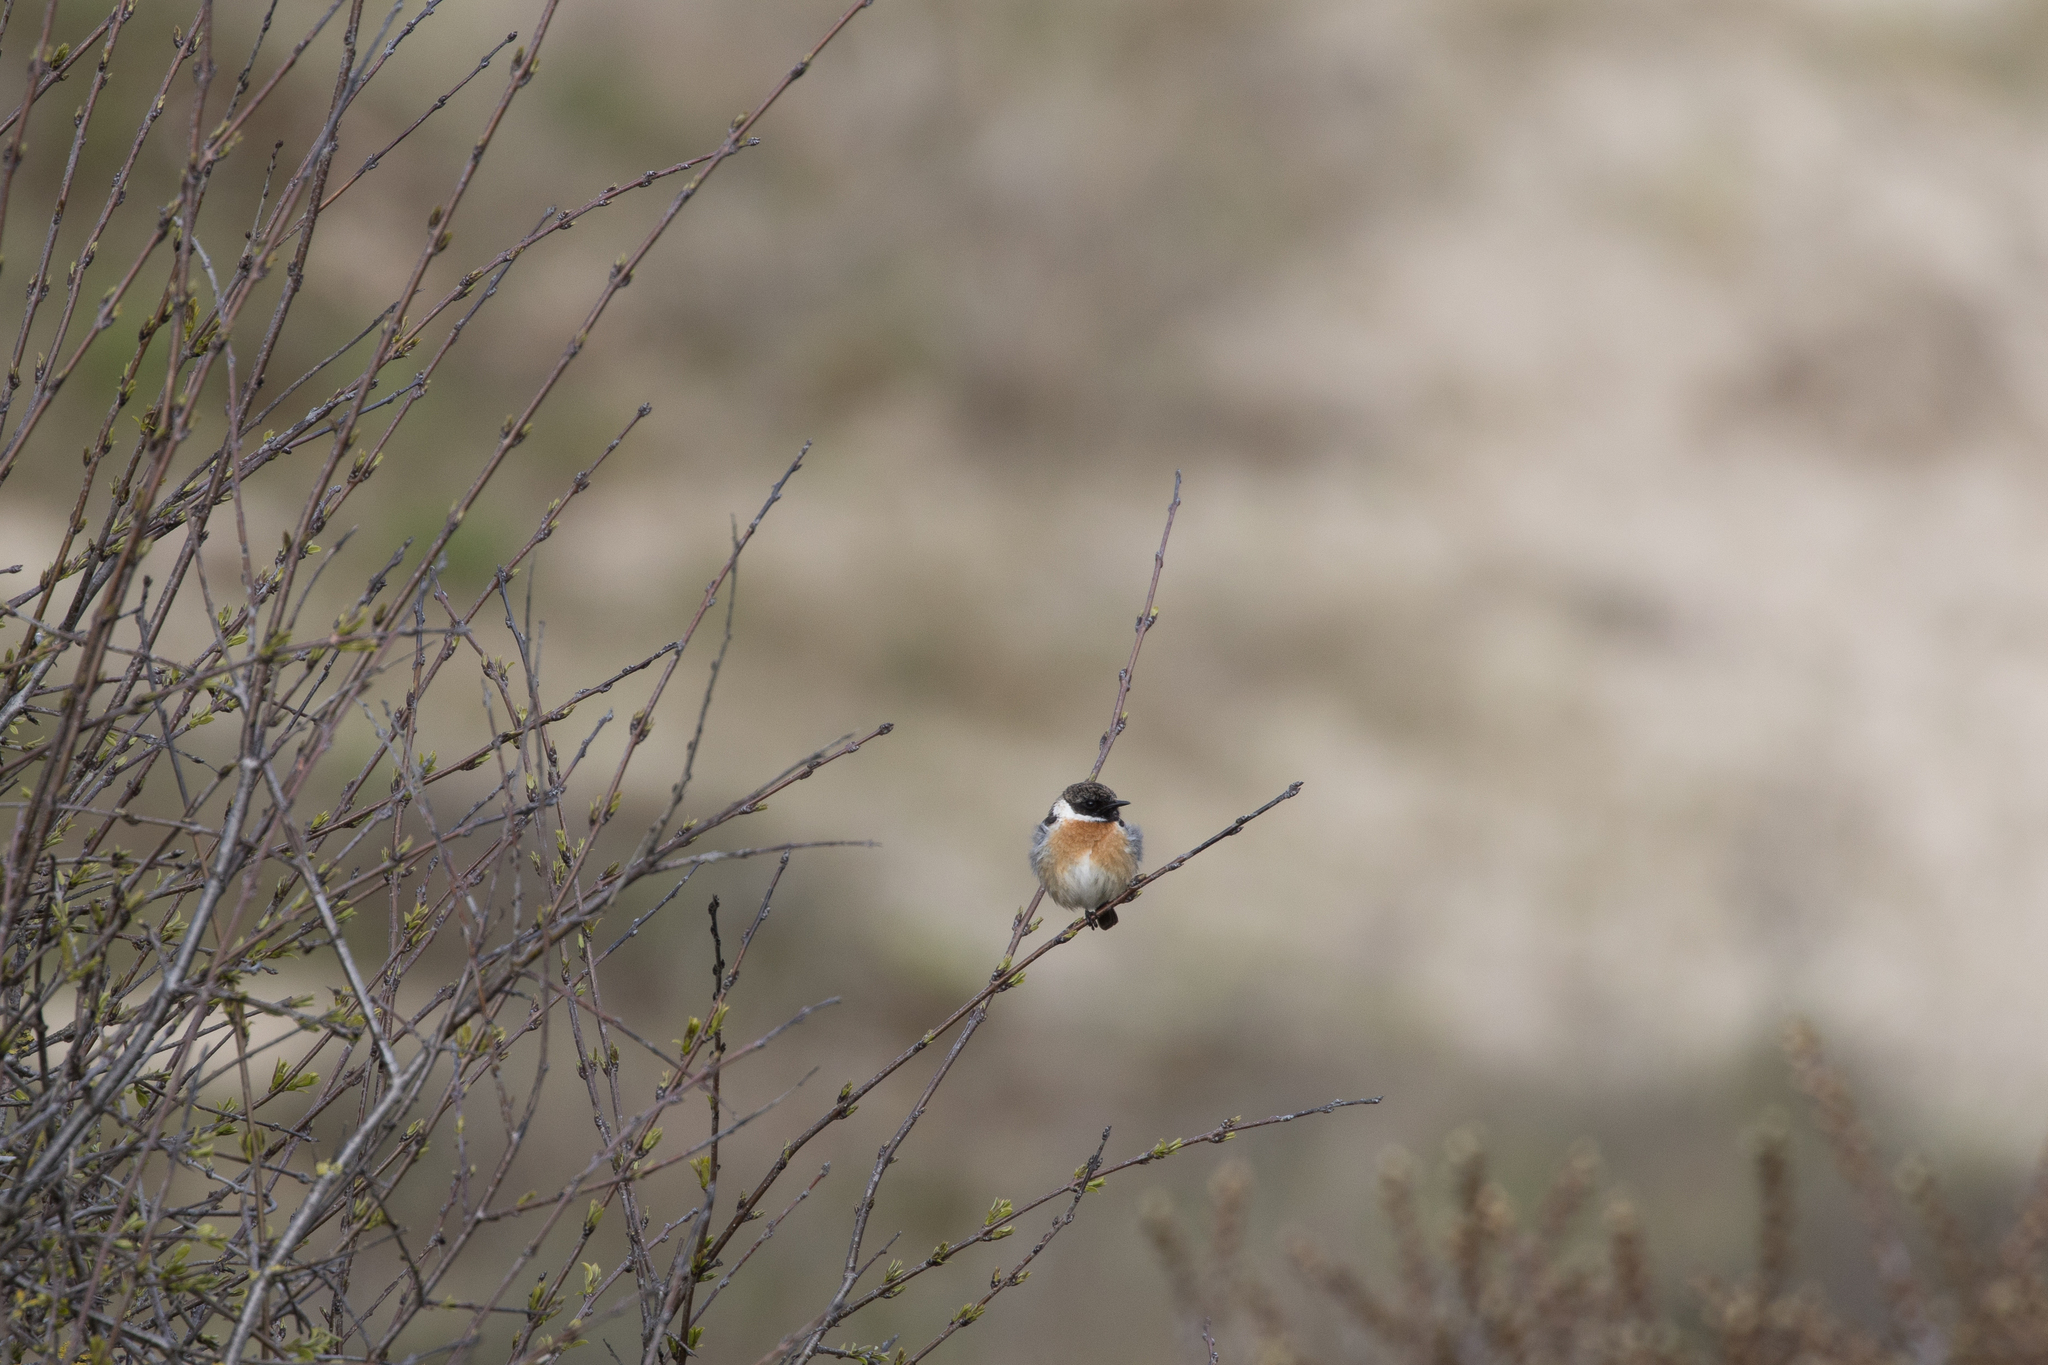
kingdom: Animalia
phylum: Chordata
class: Aves
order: Passeriformes
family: Muscicapidae
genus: Saxicola
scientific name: Saxicola rubicola
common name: European stonechat
